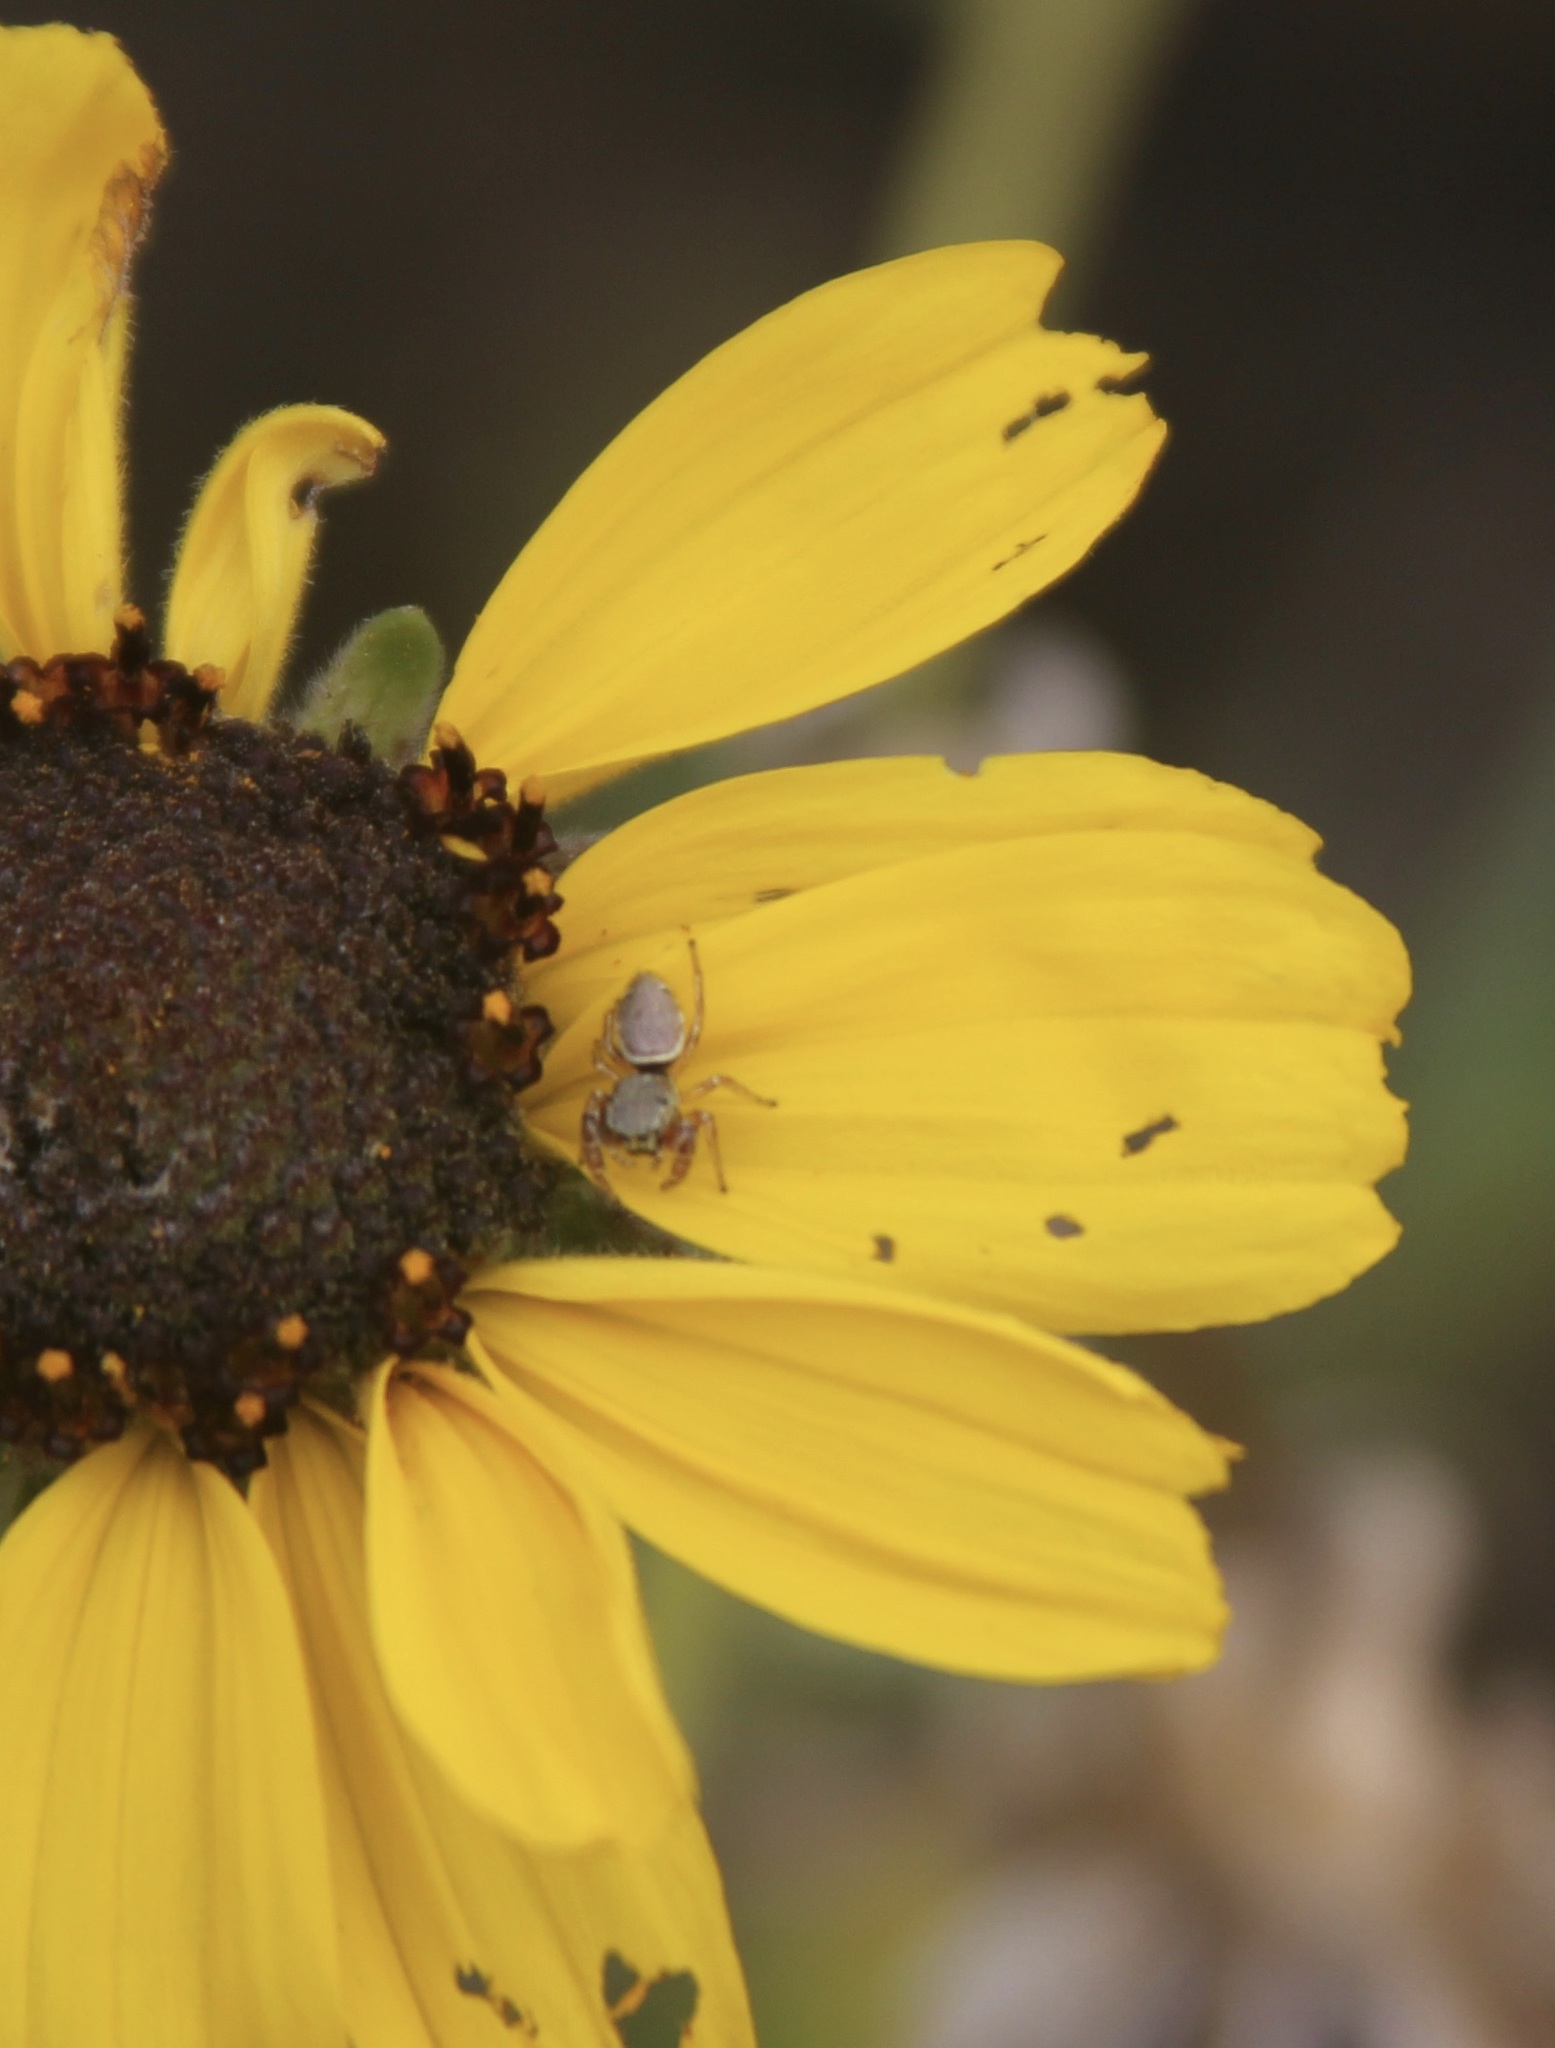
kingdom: Animalia
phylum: Arthropoda
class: Arachnida
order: Araneae
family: Salticidae
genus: Sassacus
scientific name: Sassacus vitis
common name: Jumping spiders
